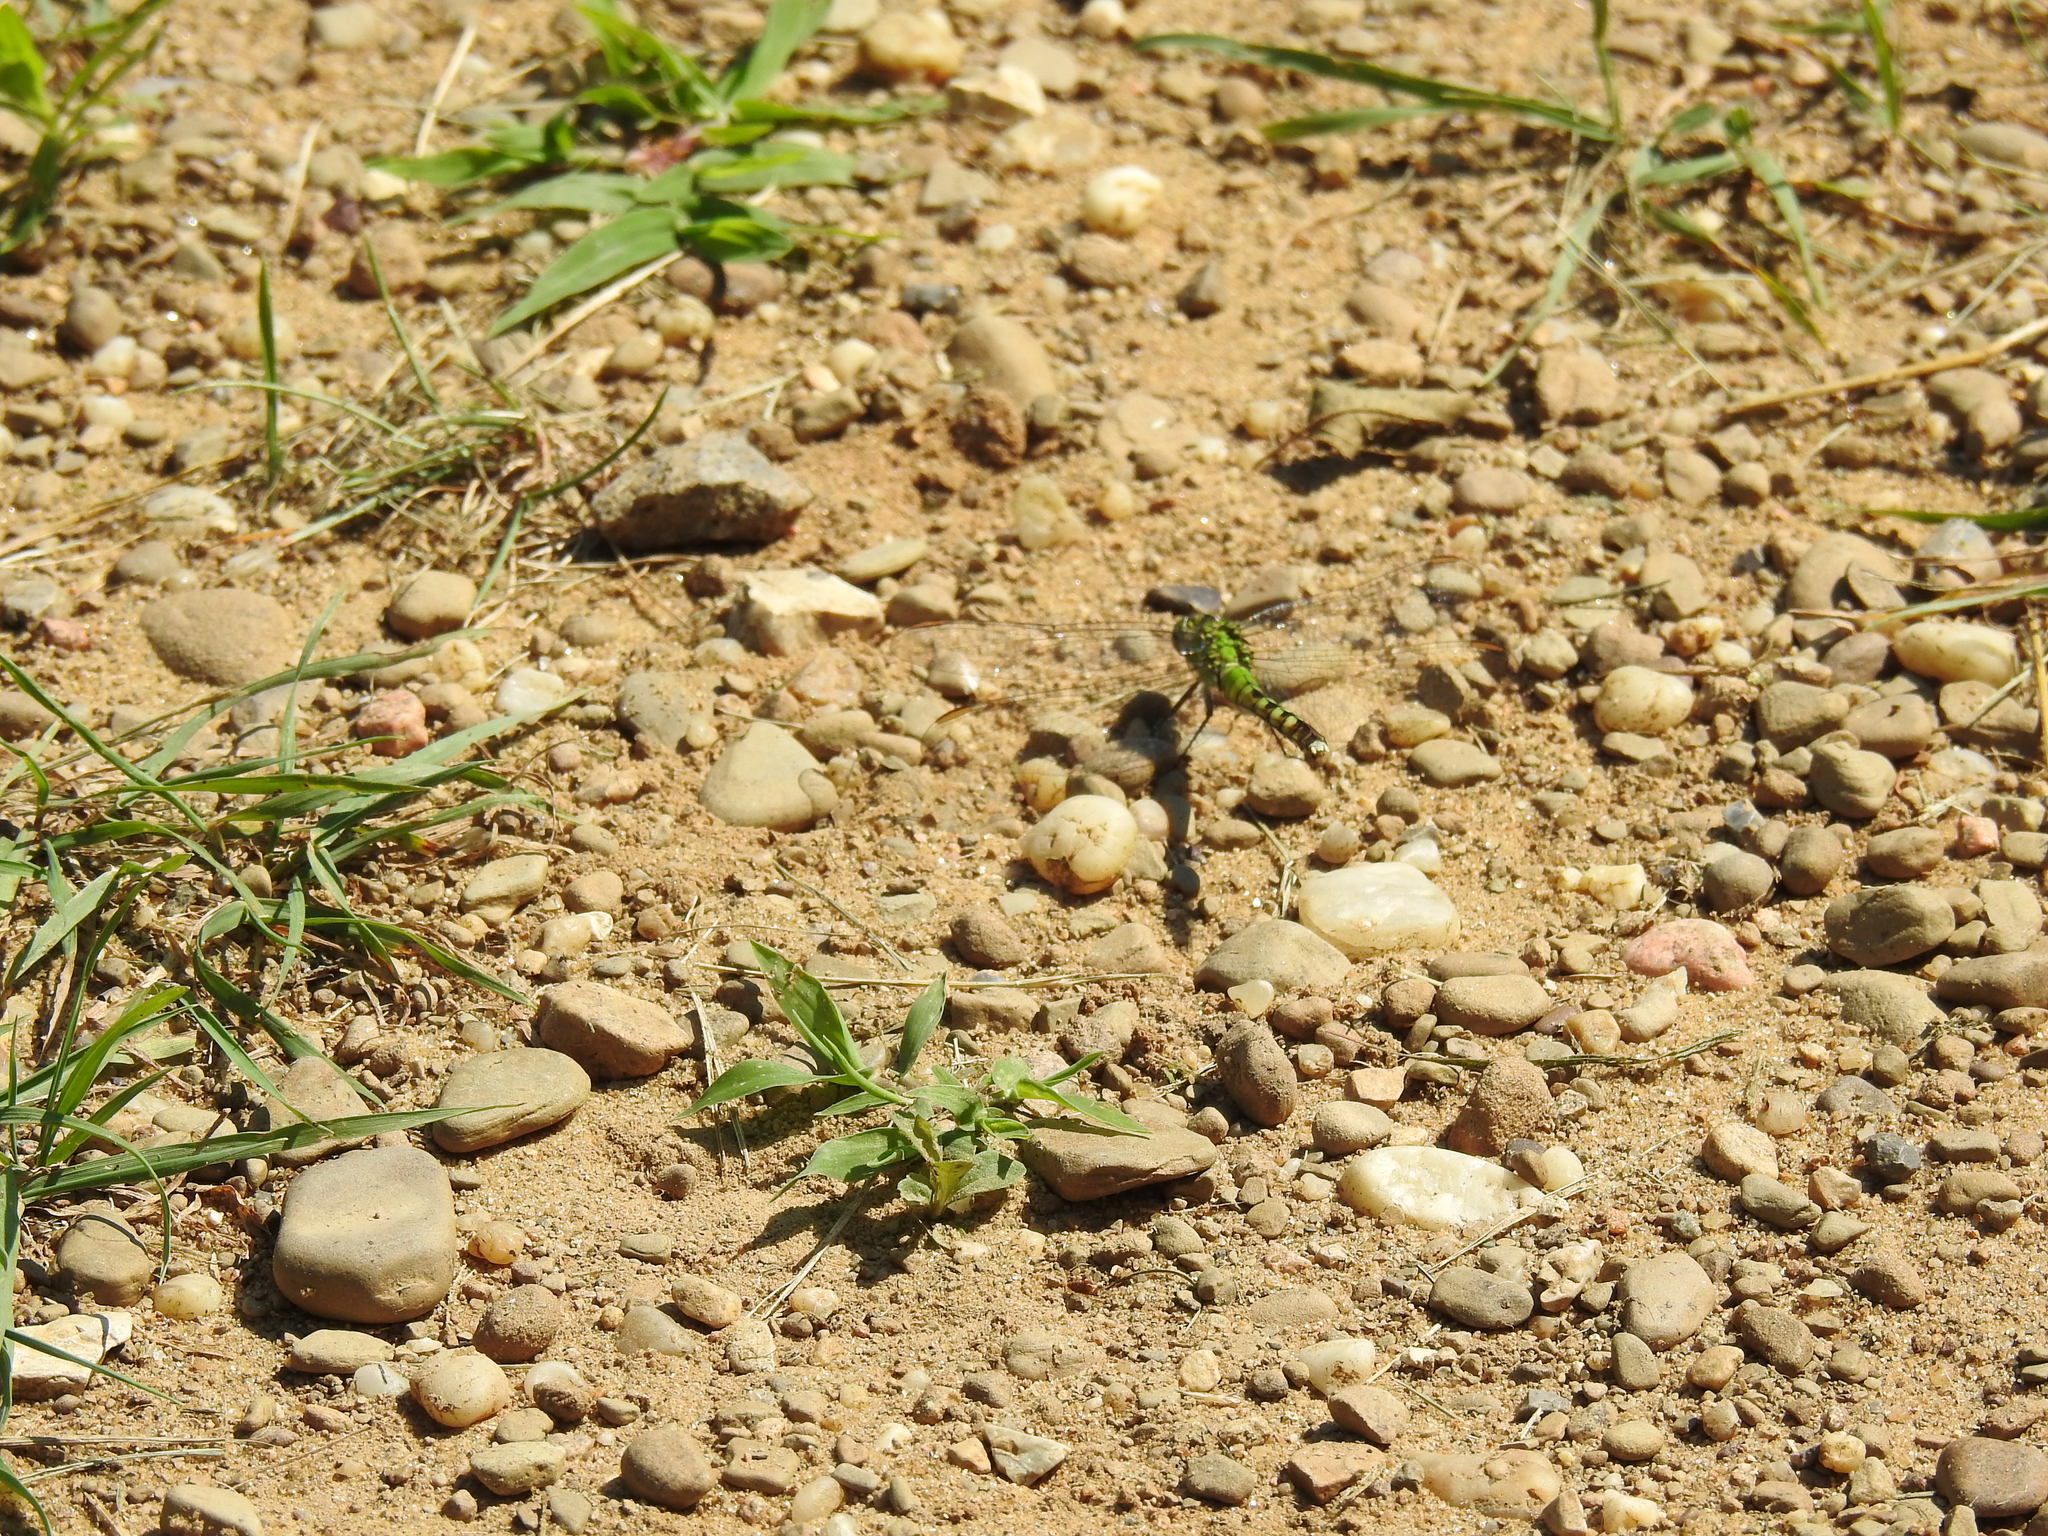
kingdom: Animalia
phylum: Arthropoda
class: Insecta
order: Odonata
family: Libellulidae
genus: Erythemis
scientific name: Erythemis simplicicollis
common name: Eastern pondhawk
